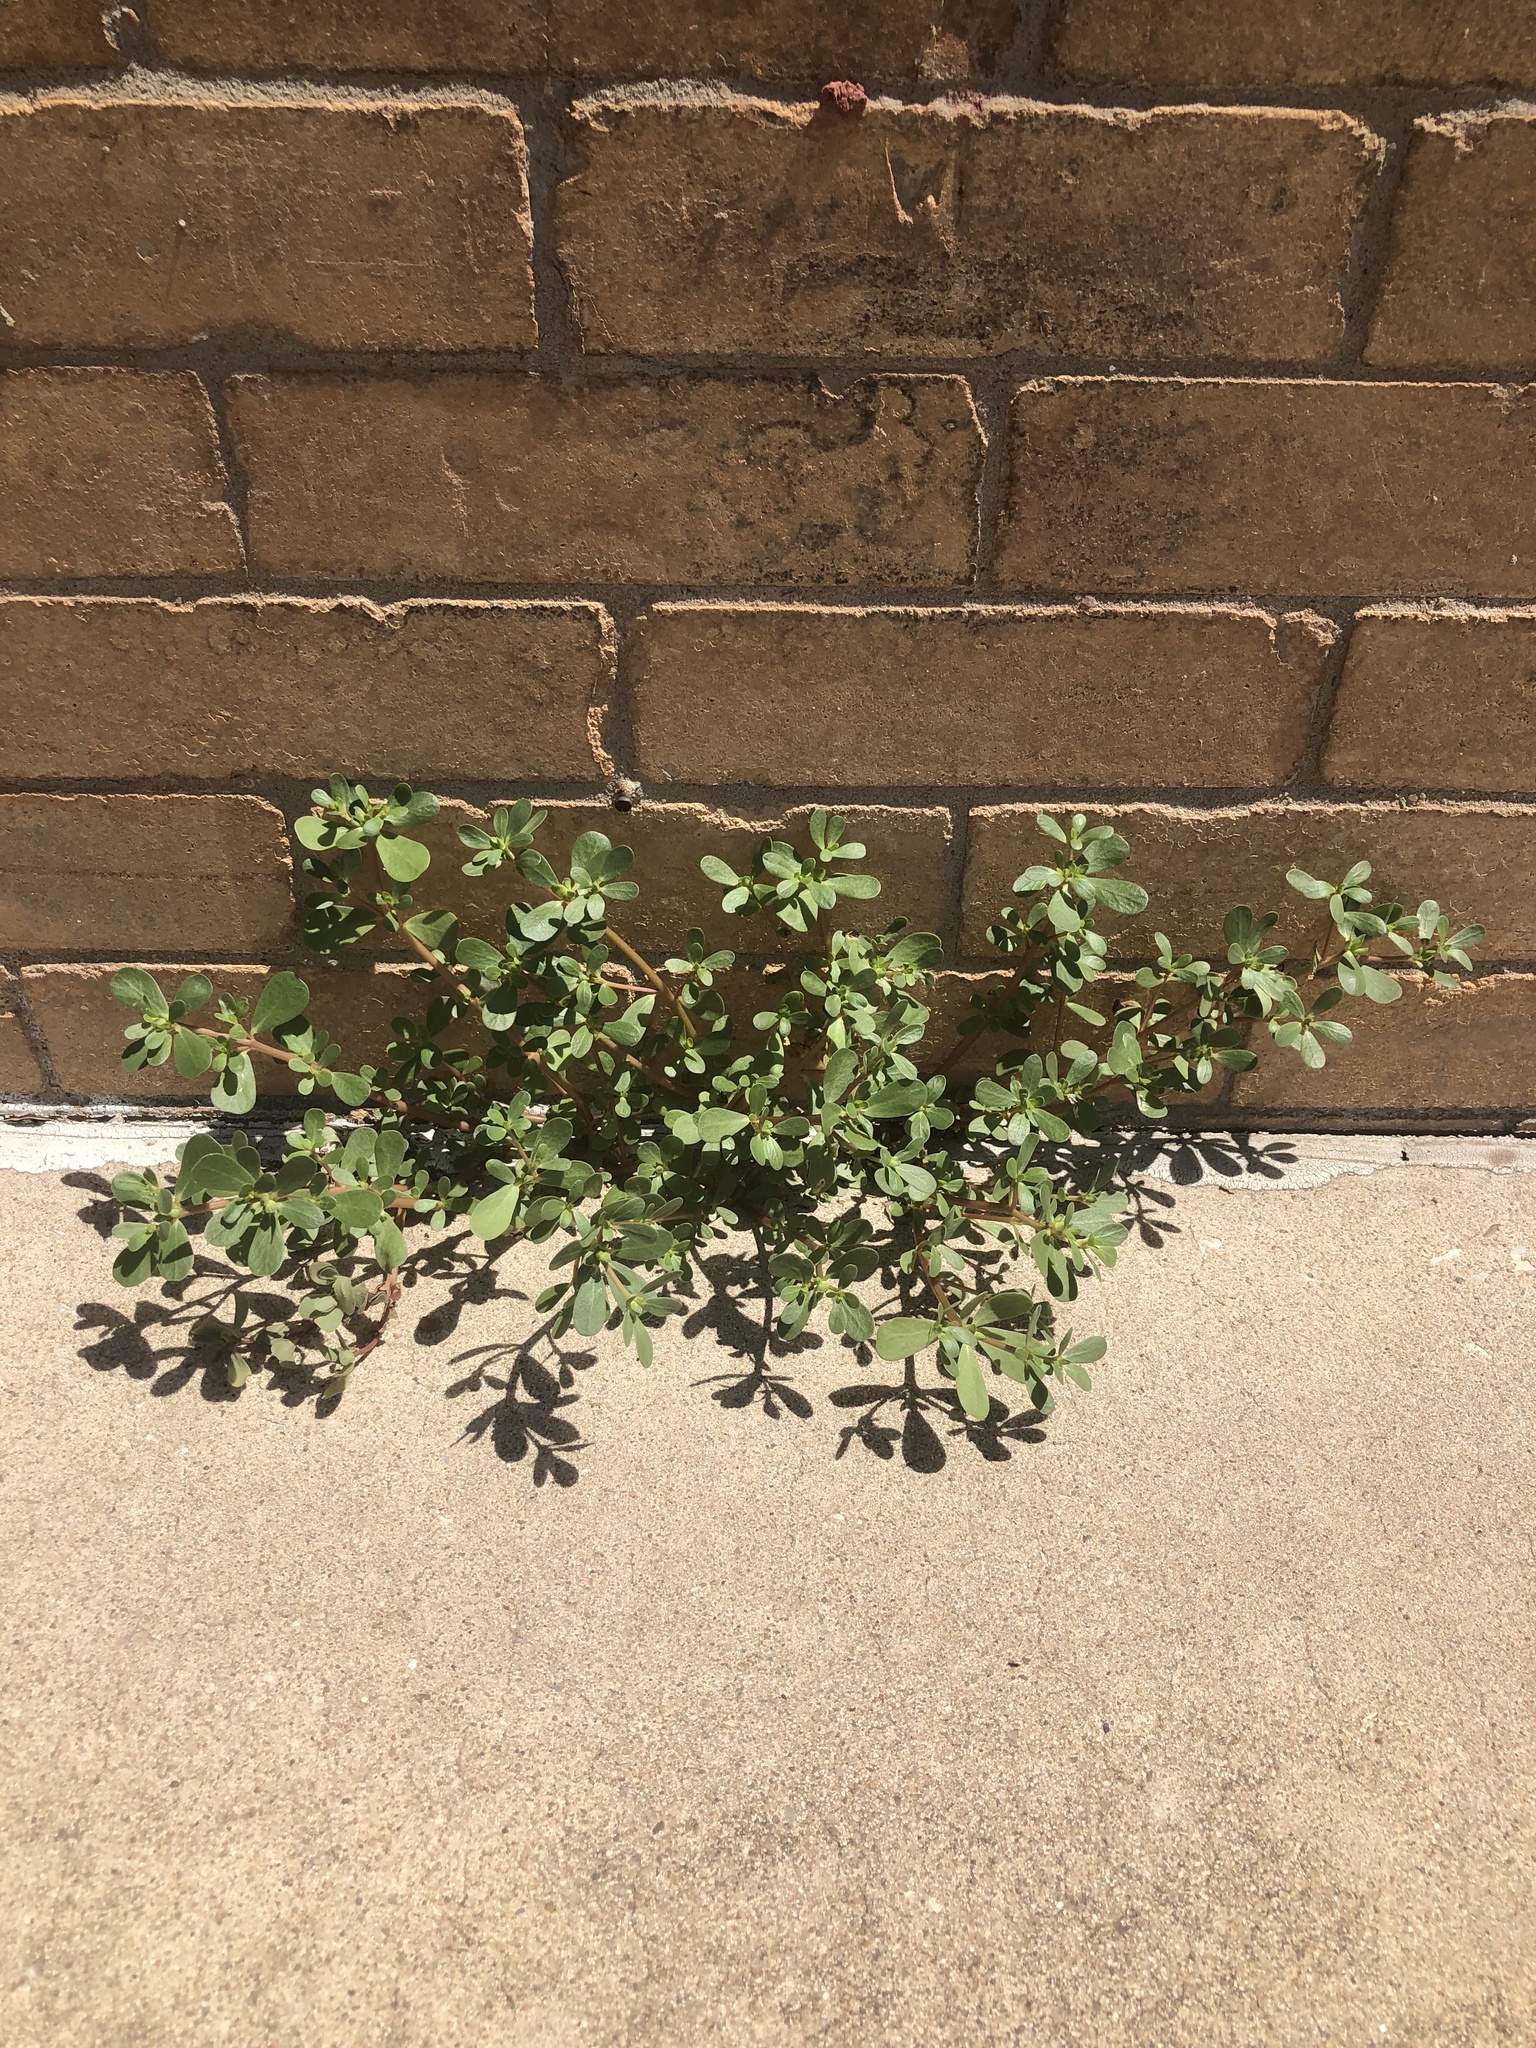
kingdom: Plantae
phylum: Tracheophyta
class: Magnoliopsida
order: Caryophyllales
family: Portulacaceae
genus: Portulaca
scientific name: Portulaca oleracea
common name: Common purslane
